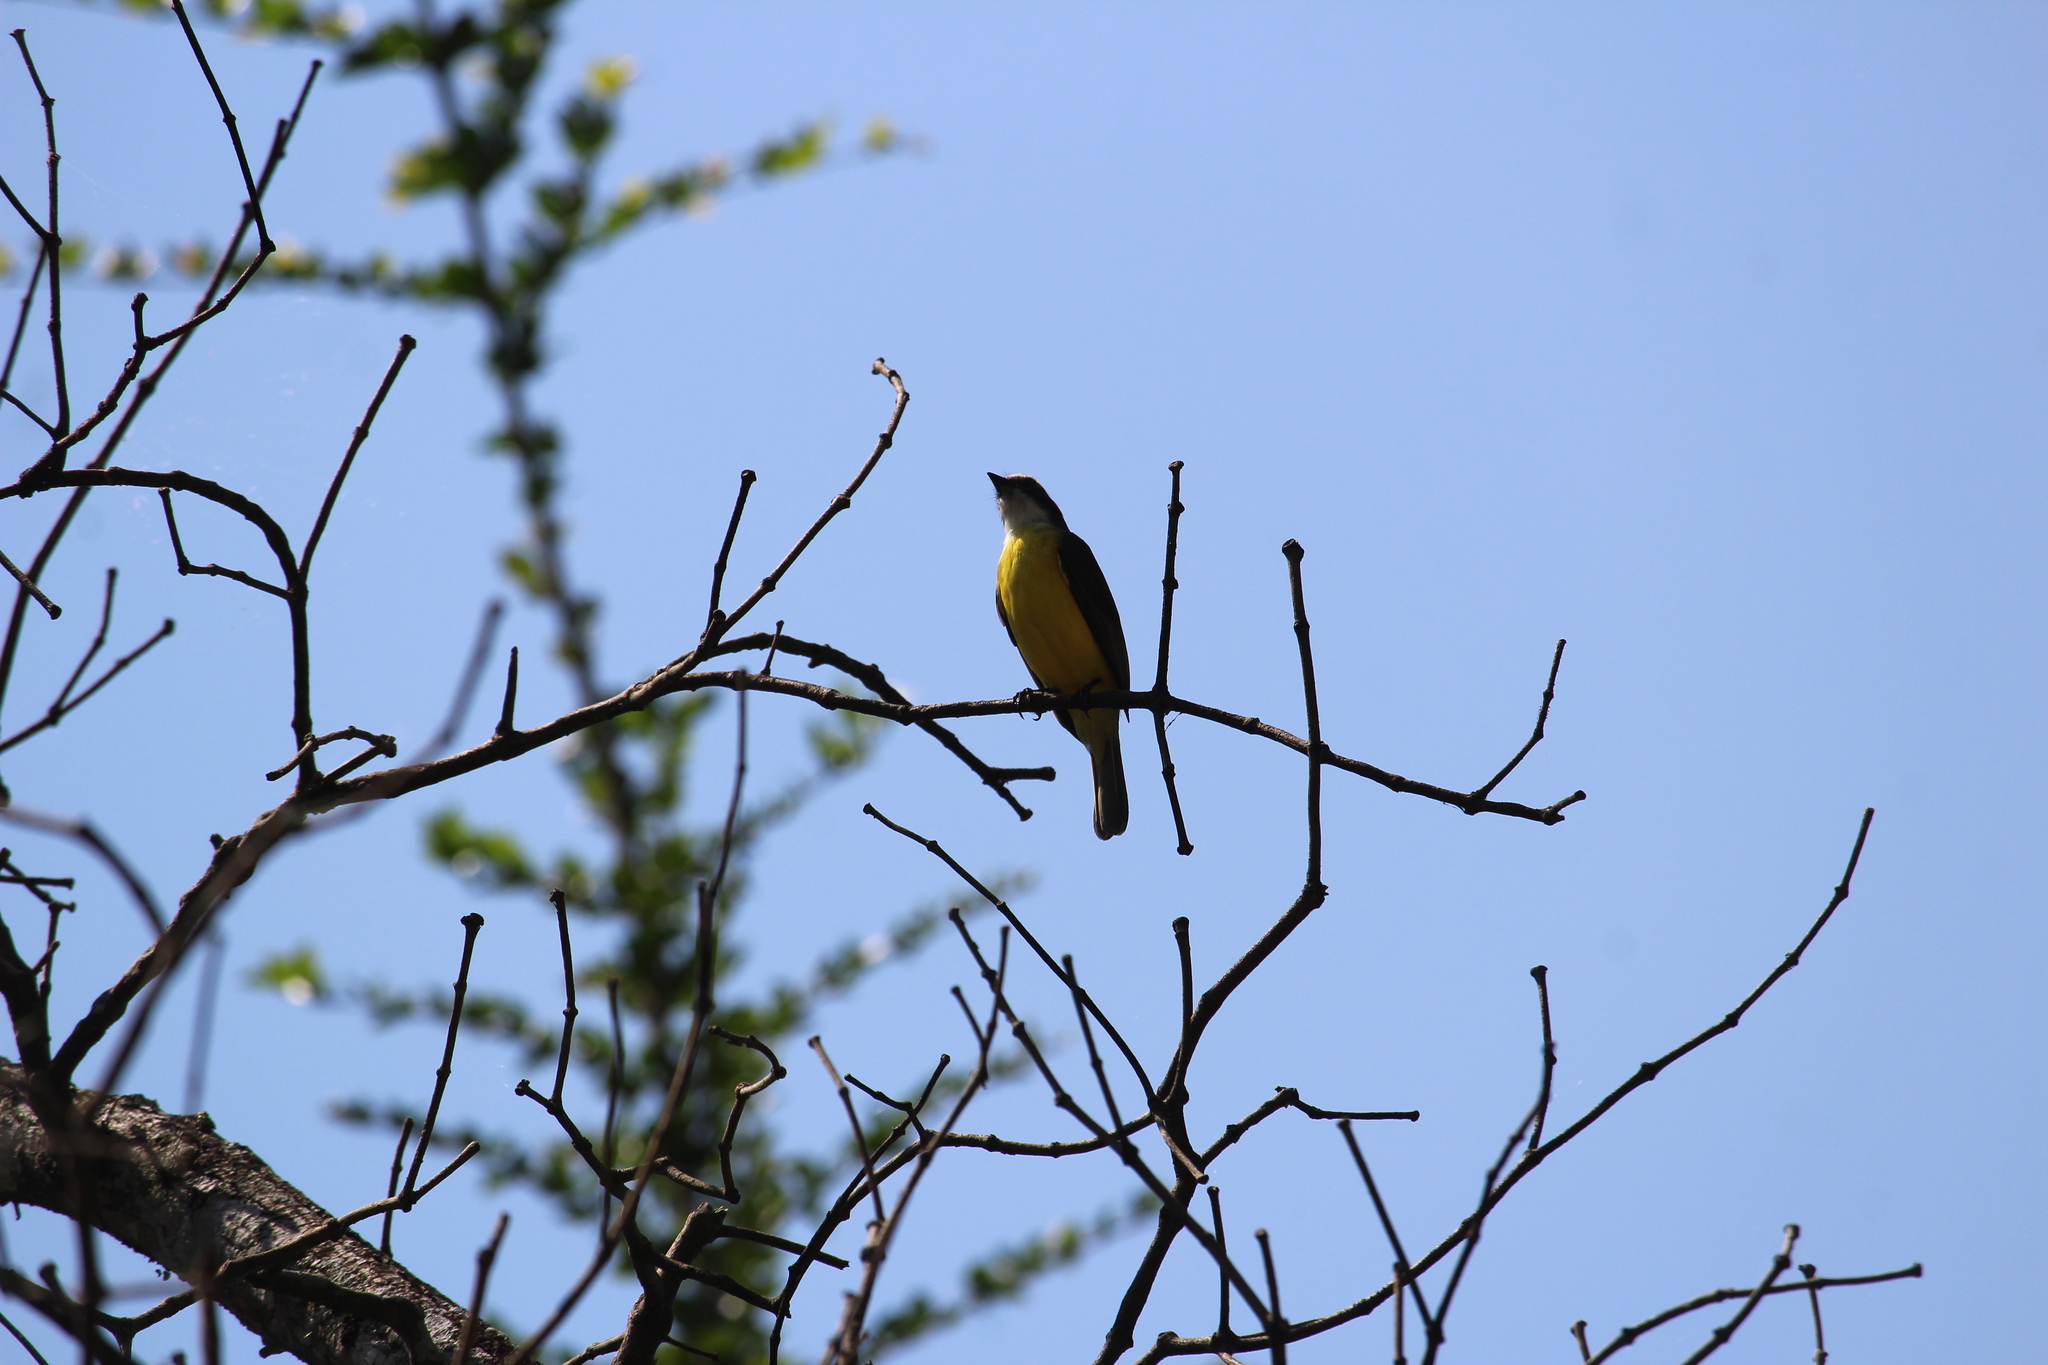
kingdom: Animalia
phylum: Chordata
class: Aves
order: Passeriformes
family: Tyrannidae
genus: Myiozetetes
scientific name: Myiozetetes similis
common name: Social flycatcher
